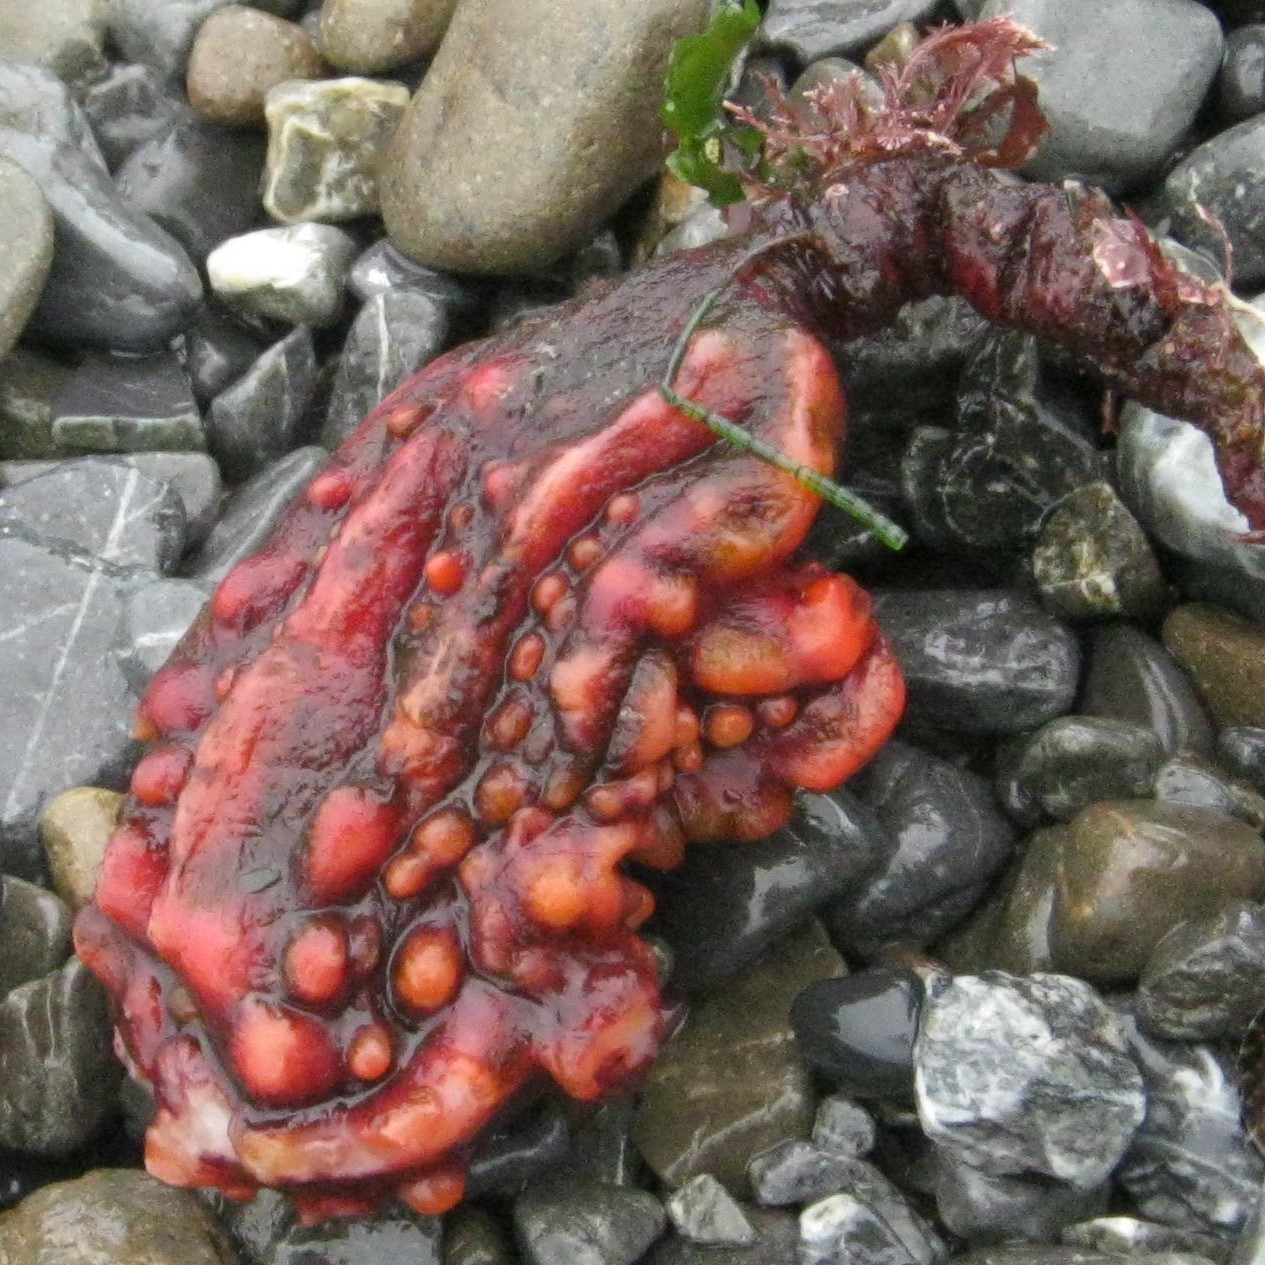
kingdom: Animalia
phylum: Chordata
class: Ascidiacea
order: Stolidobranchia
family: Pyuridae
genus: Pyura
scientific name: Pyura pachydermatina
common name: Sea tulip
